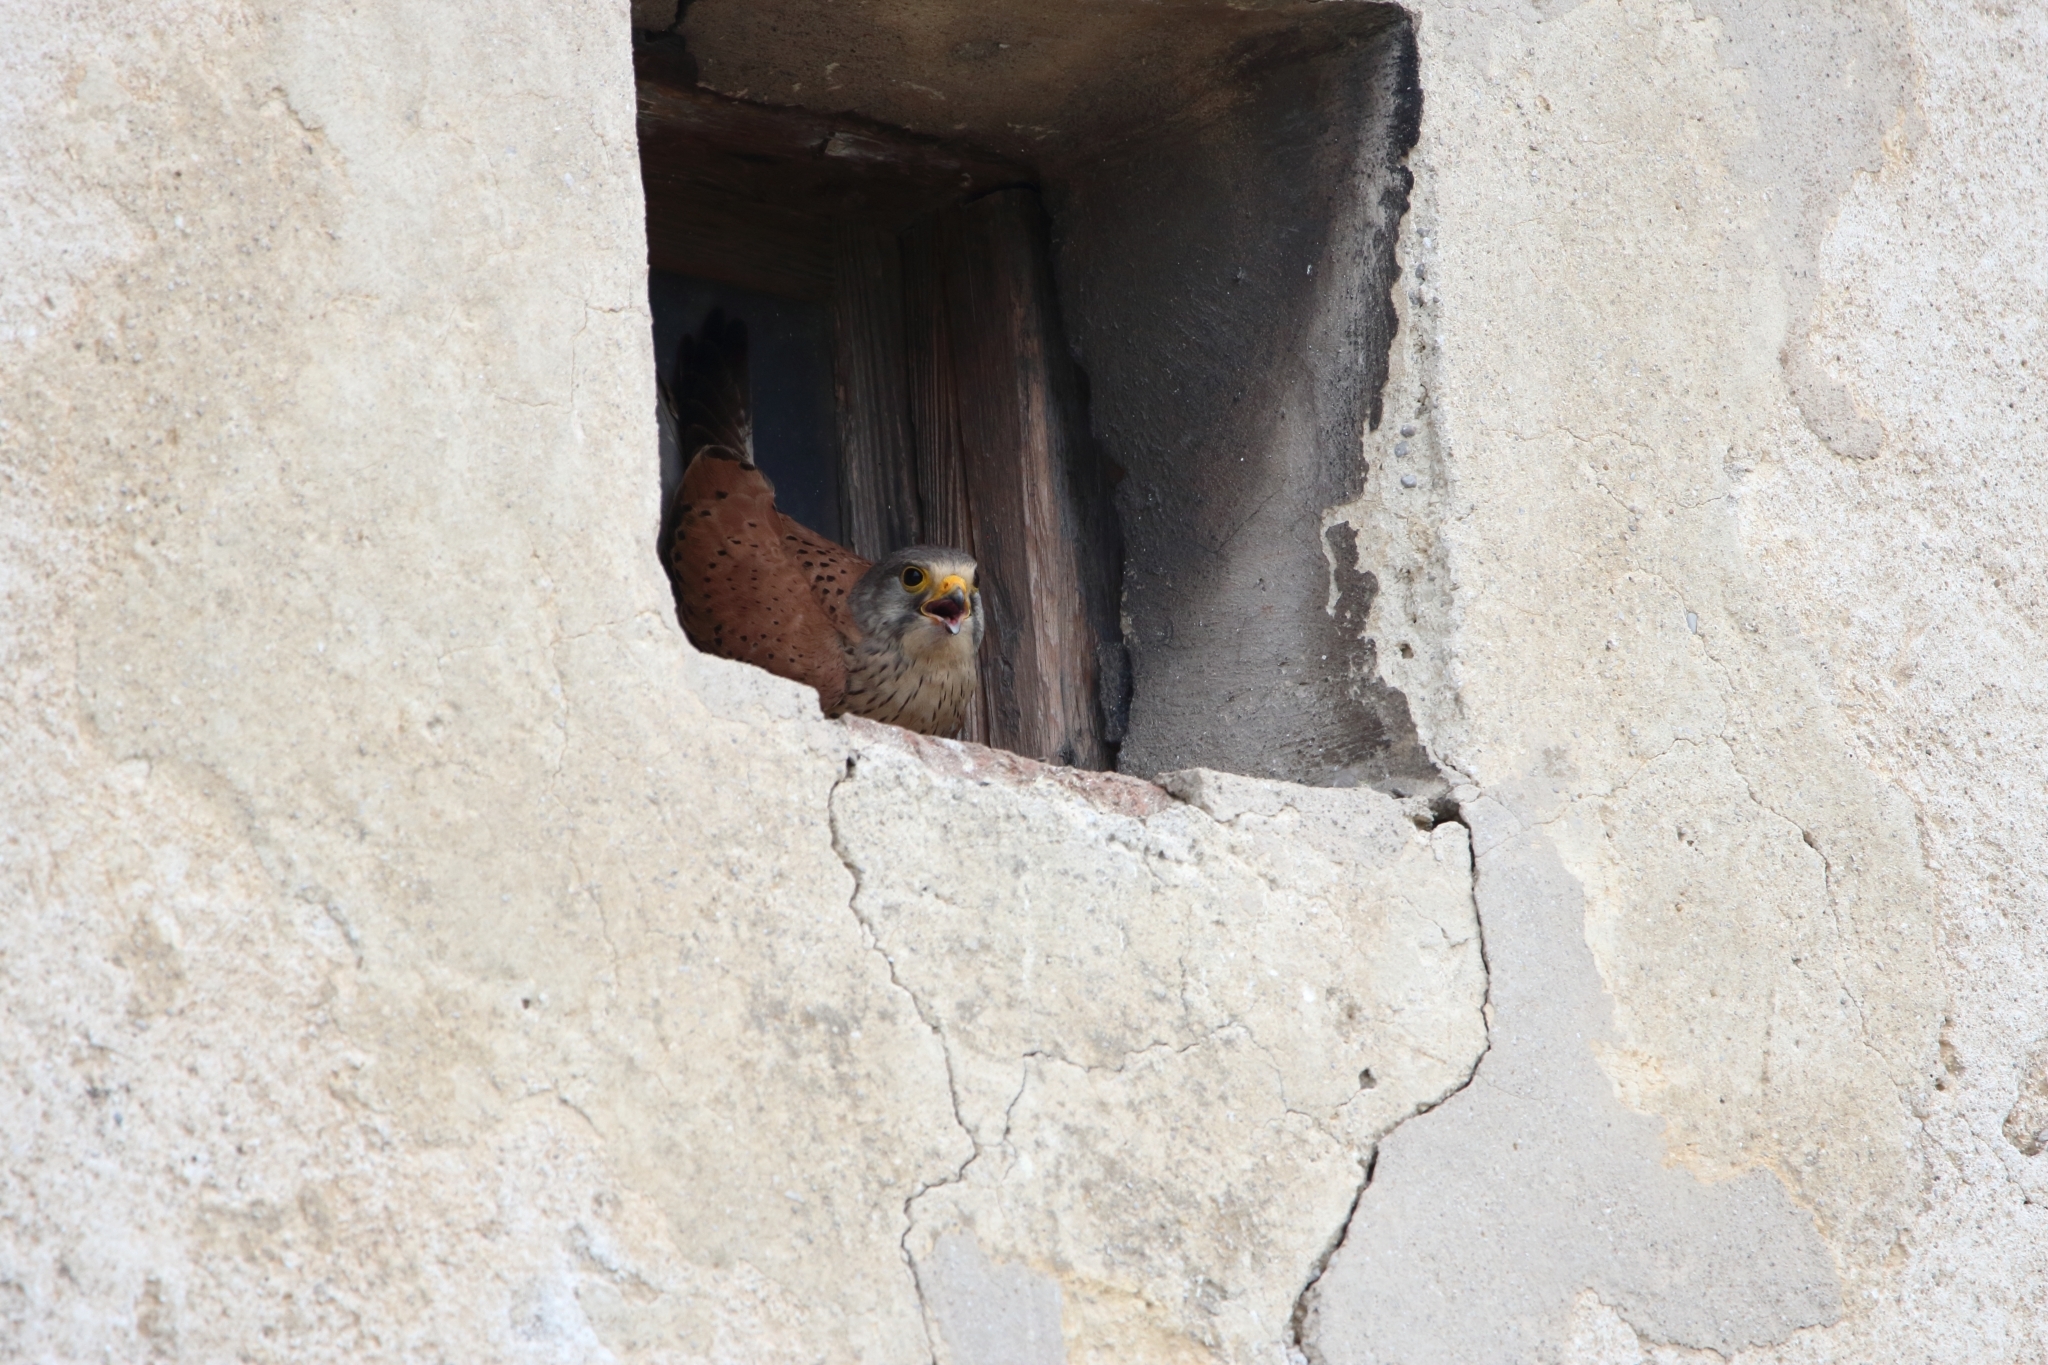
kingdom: Animalia
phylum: Chordata
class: Aves
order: Falconiformes
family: Falconidae
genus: Falco
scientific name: Falco tinnunculus
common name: Common kestrel
